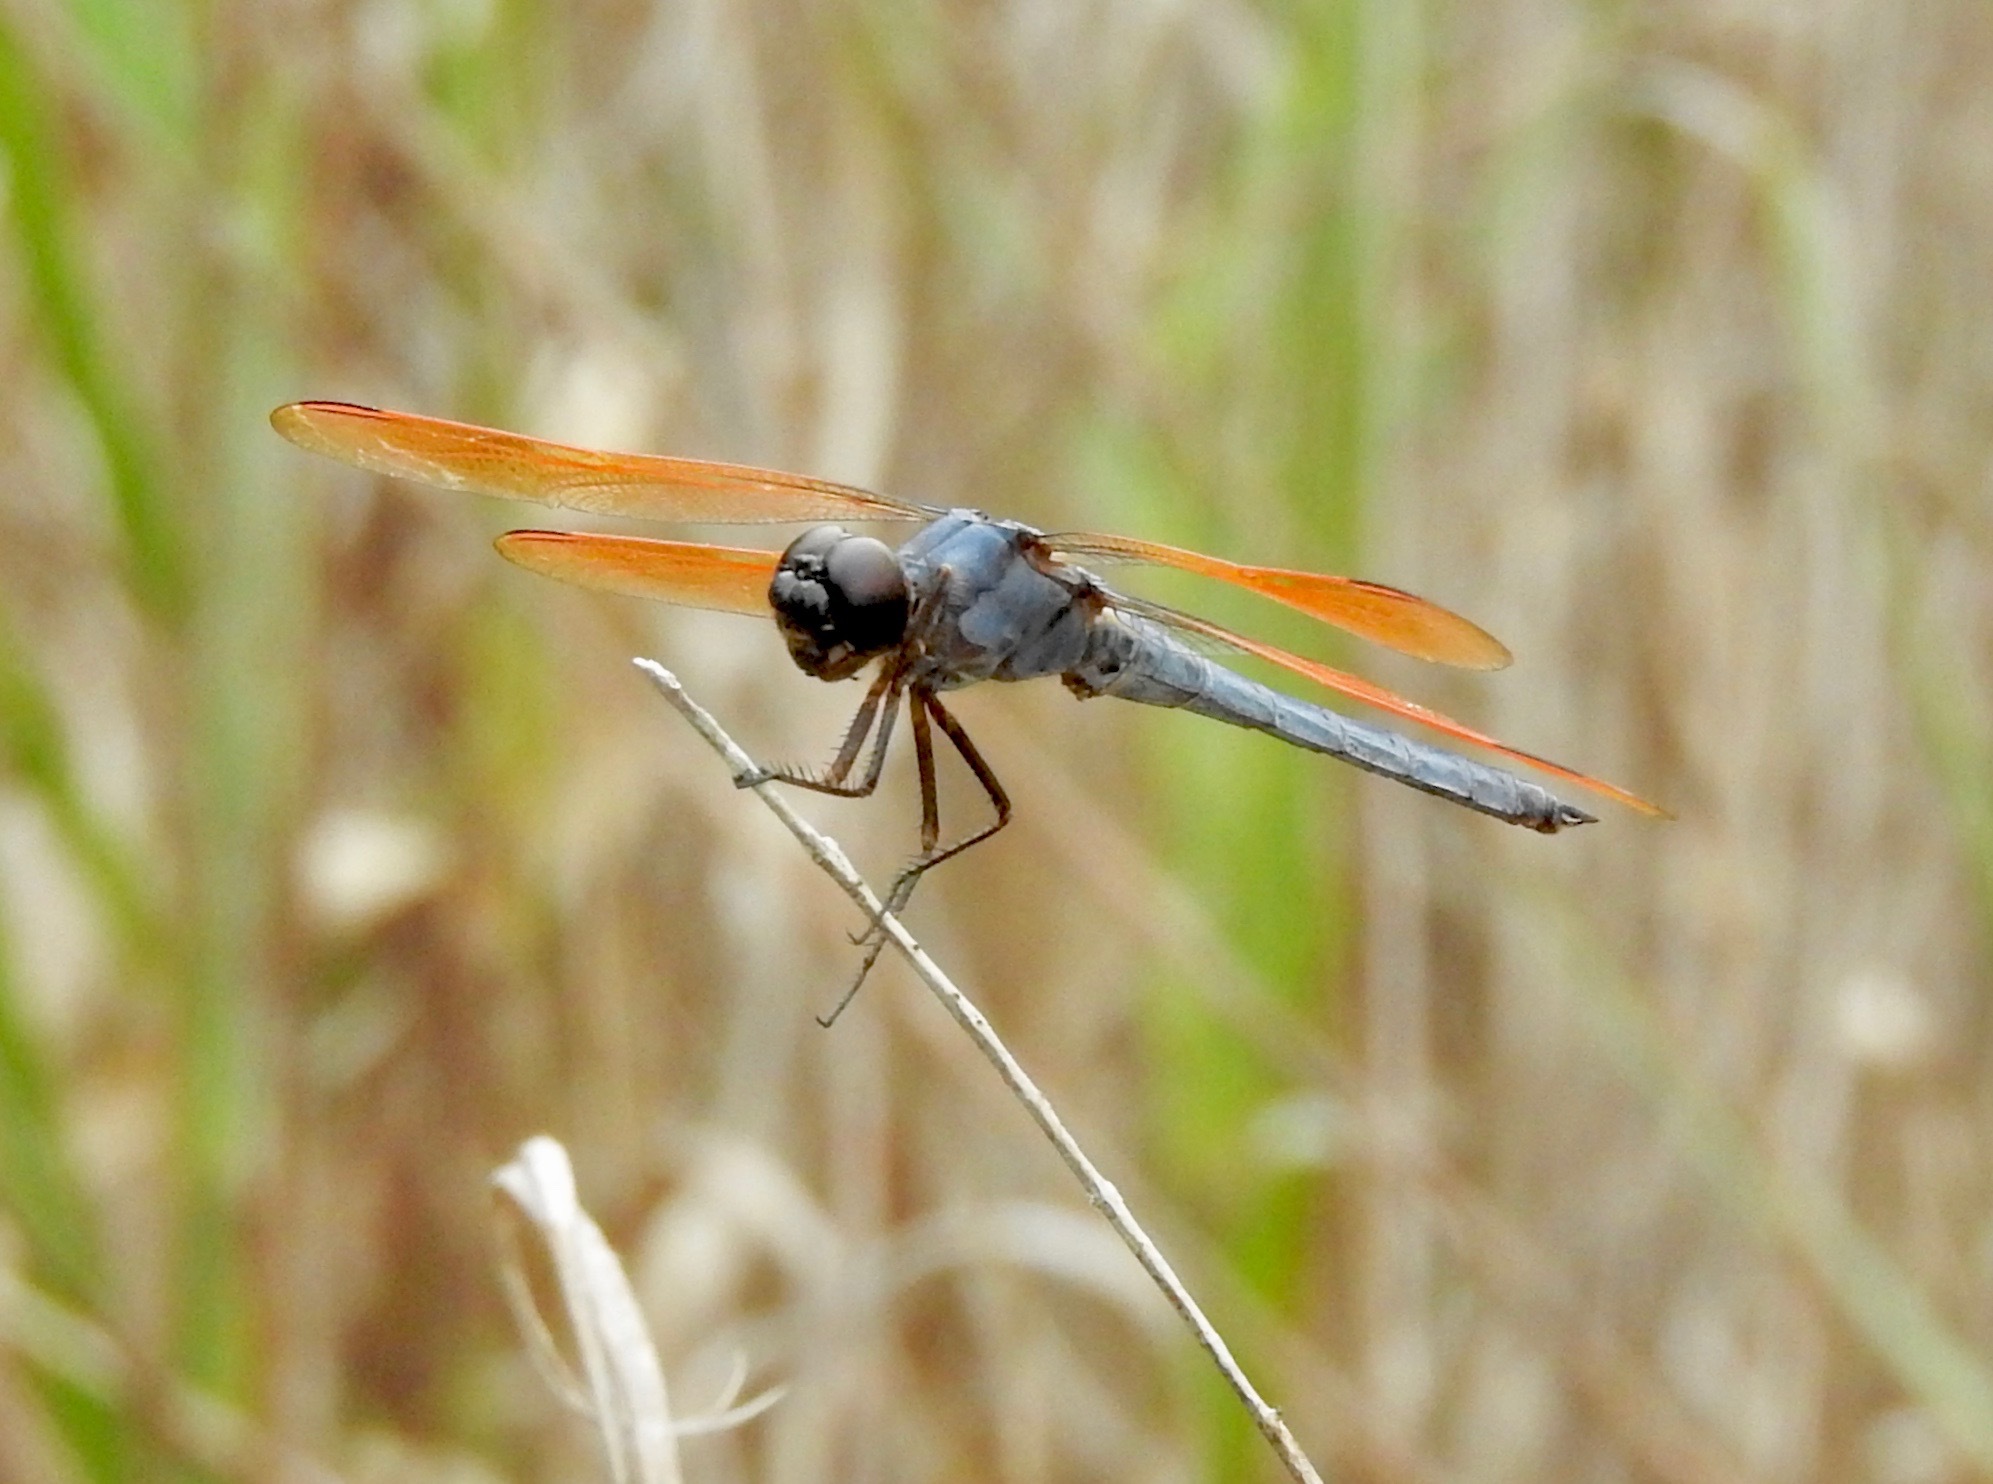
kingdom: Animalia
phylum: Arthropoda
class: Insecta
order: Odonata
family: Libellulidae
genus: Libellula
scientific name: Libellula jesseana
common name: Purple skimmer
